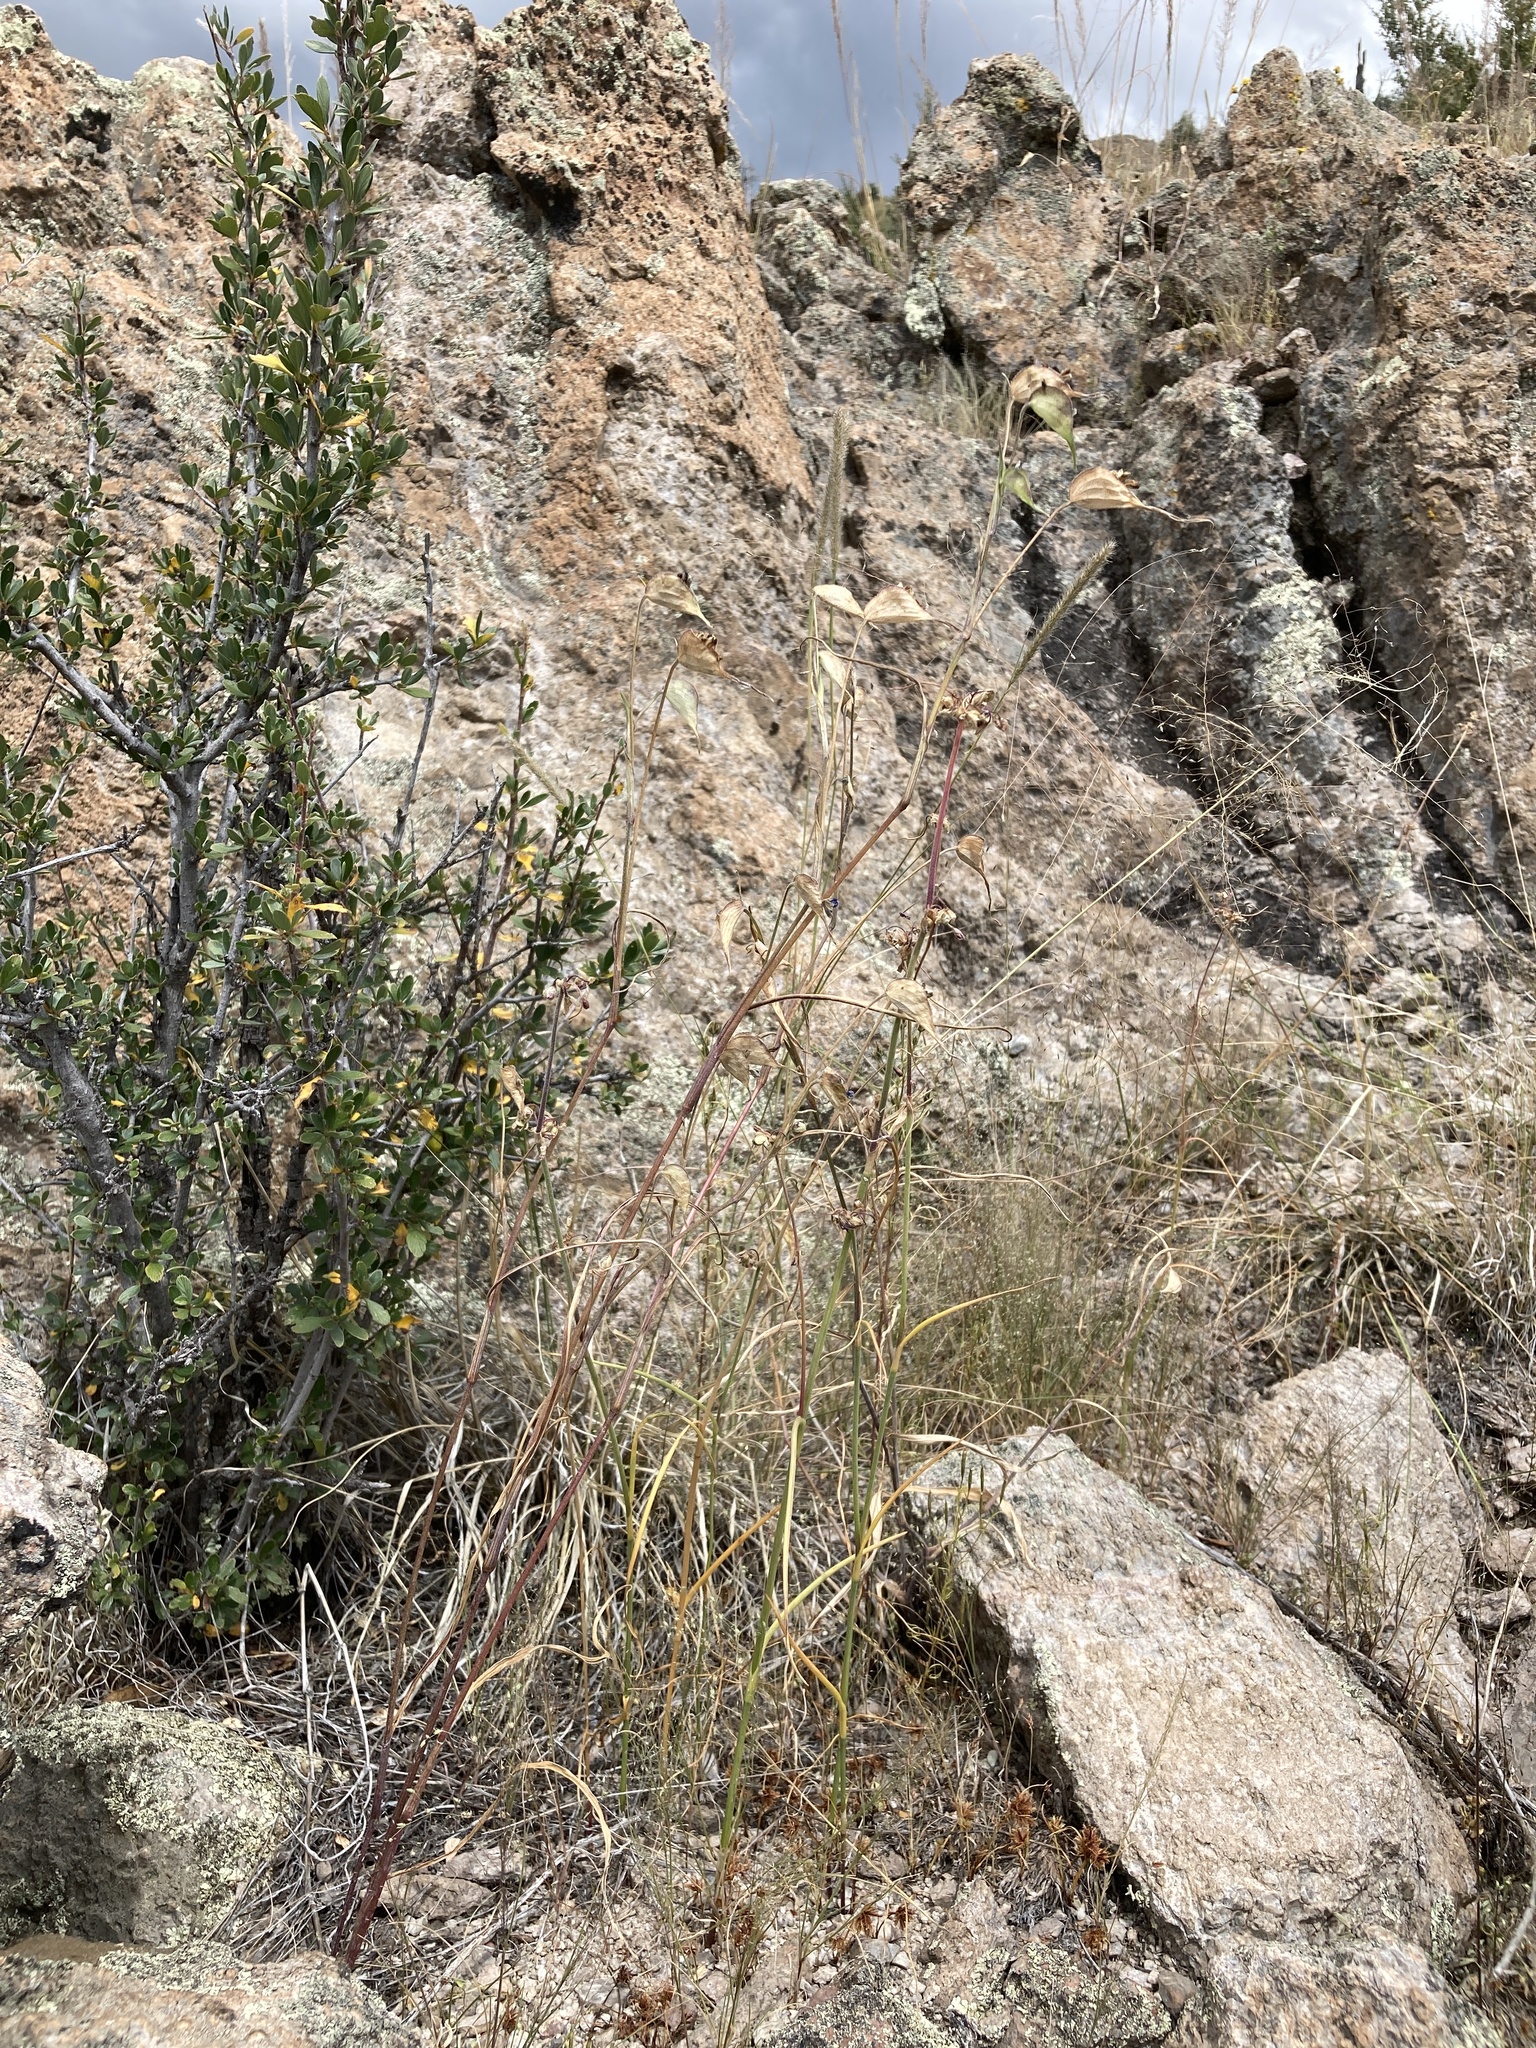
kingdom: Plantae
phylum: Tracheophyta
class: Liliopsida
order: Commelinales
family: Commelinaceae
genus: Commelina
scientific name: Commelina dianthifolia
